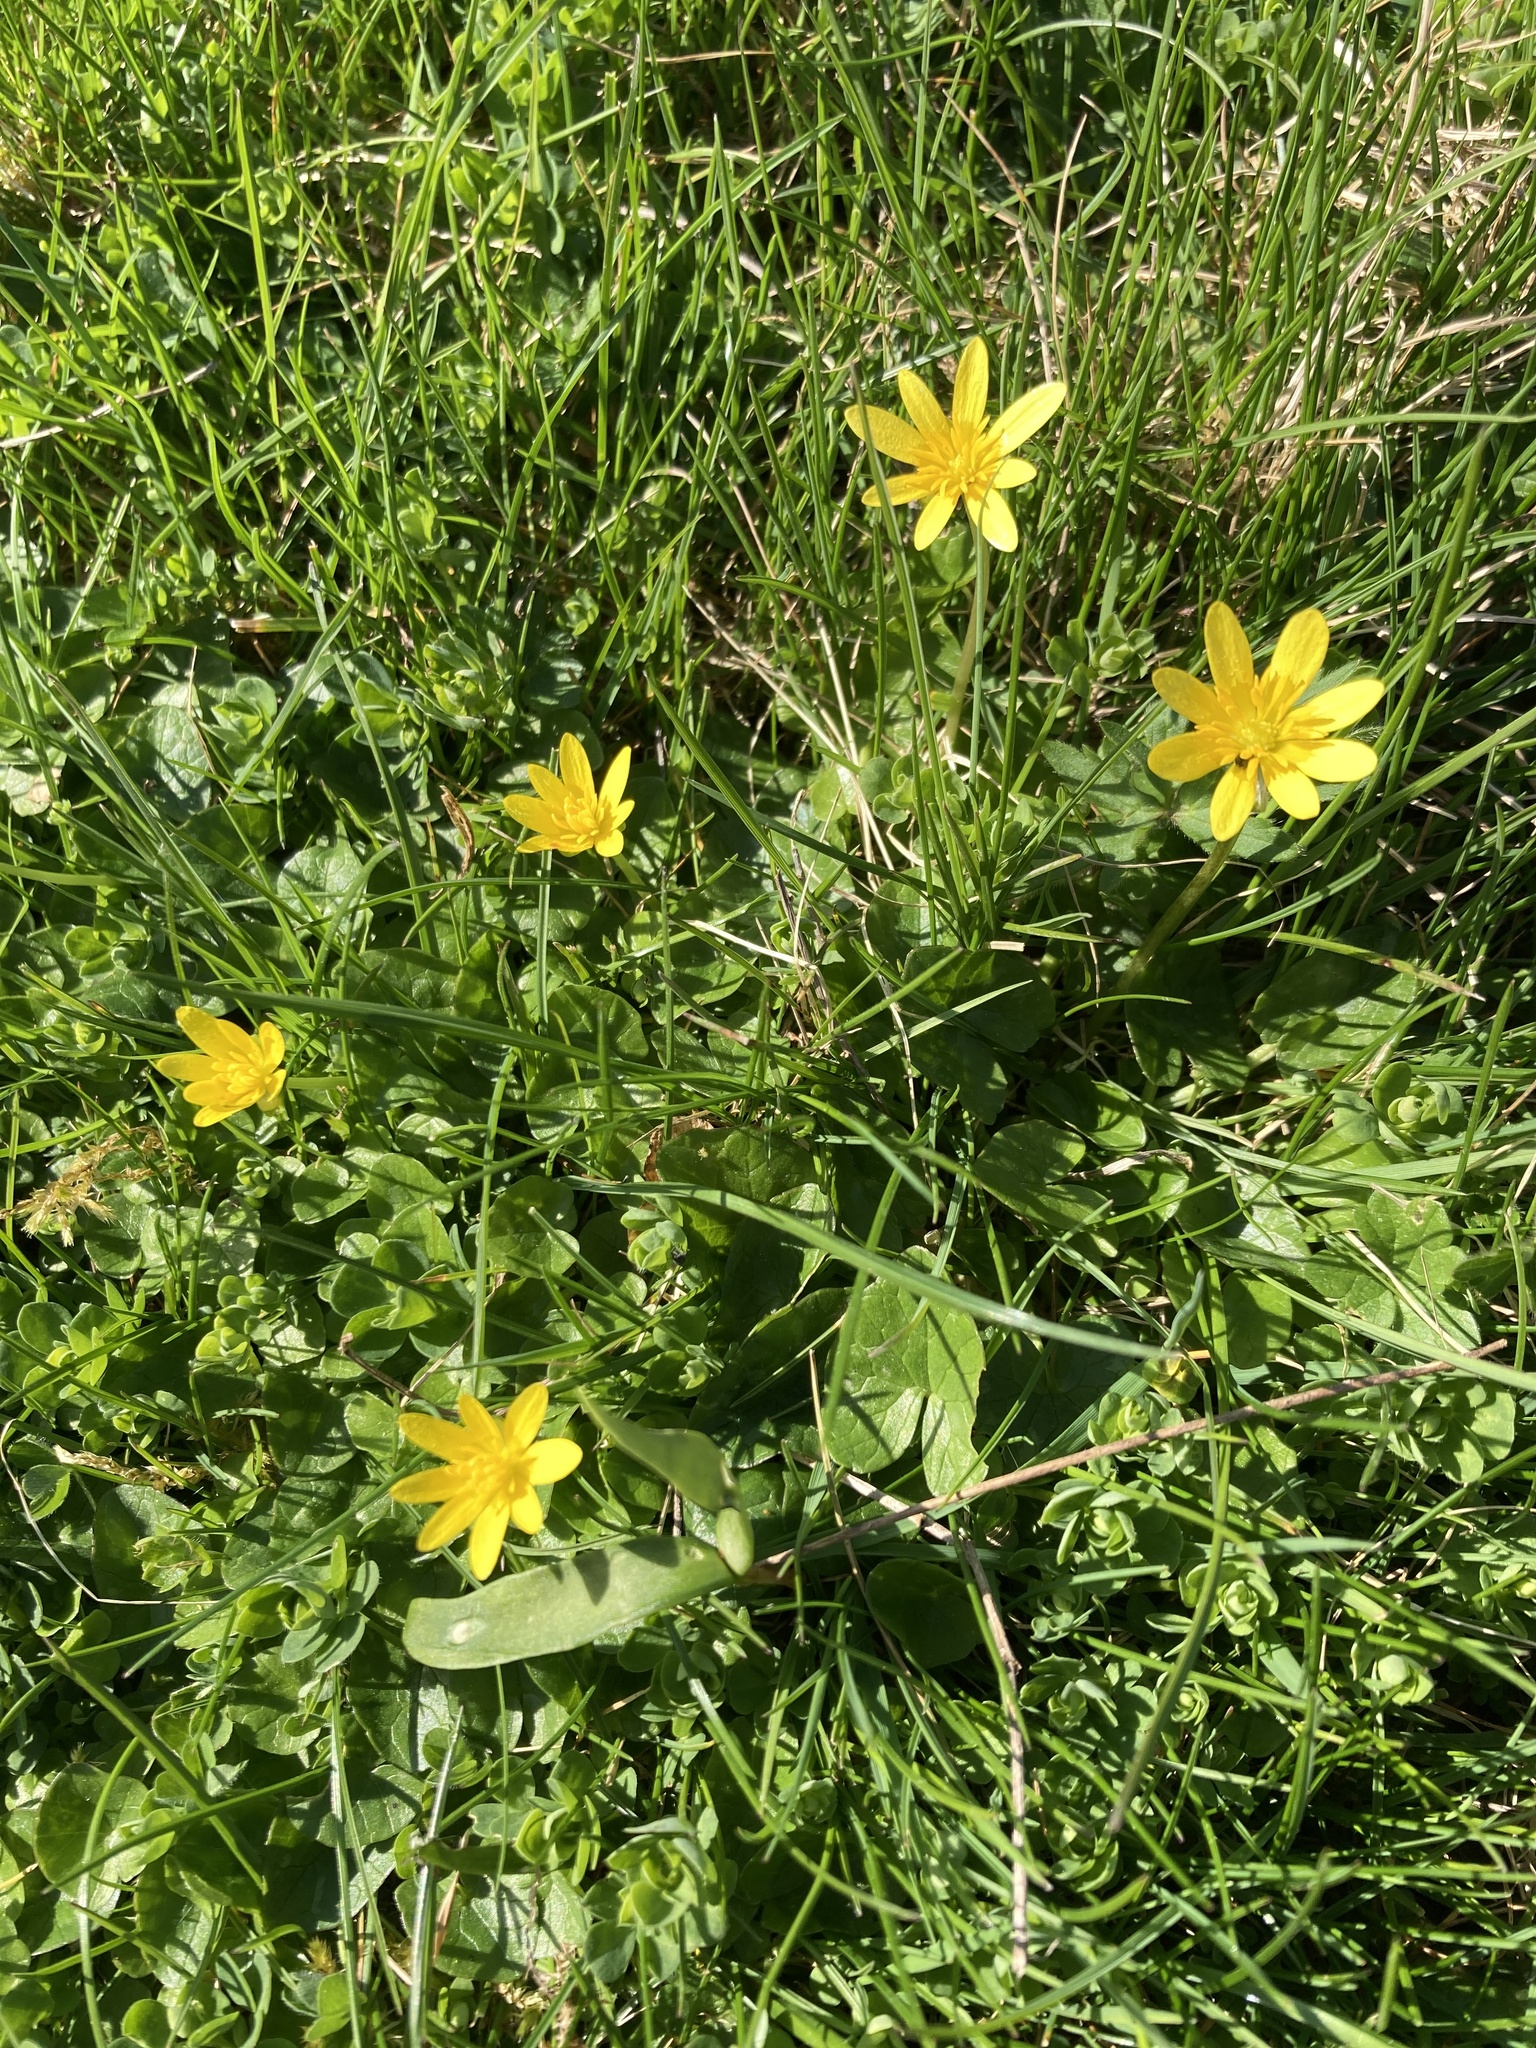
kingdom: Plantae
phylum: Tracheophyta
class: Magnoliopsida
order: Ranunculales
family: Ranunculaceae
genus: Ficaria
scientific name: Ficaria verna
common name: Lesser celandine
